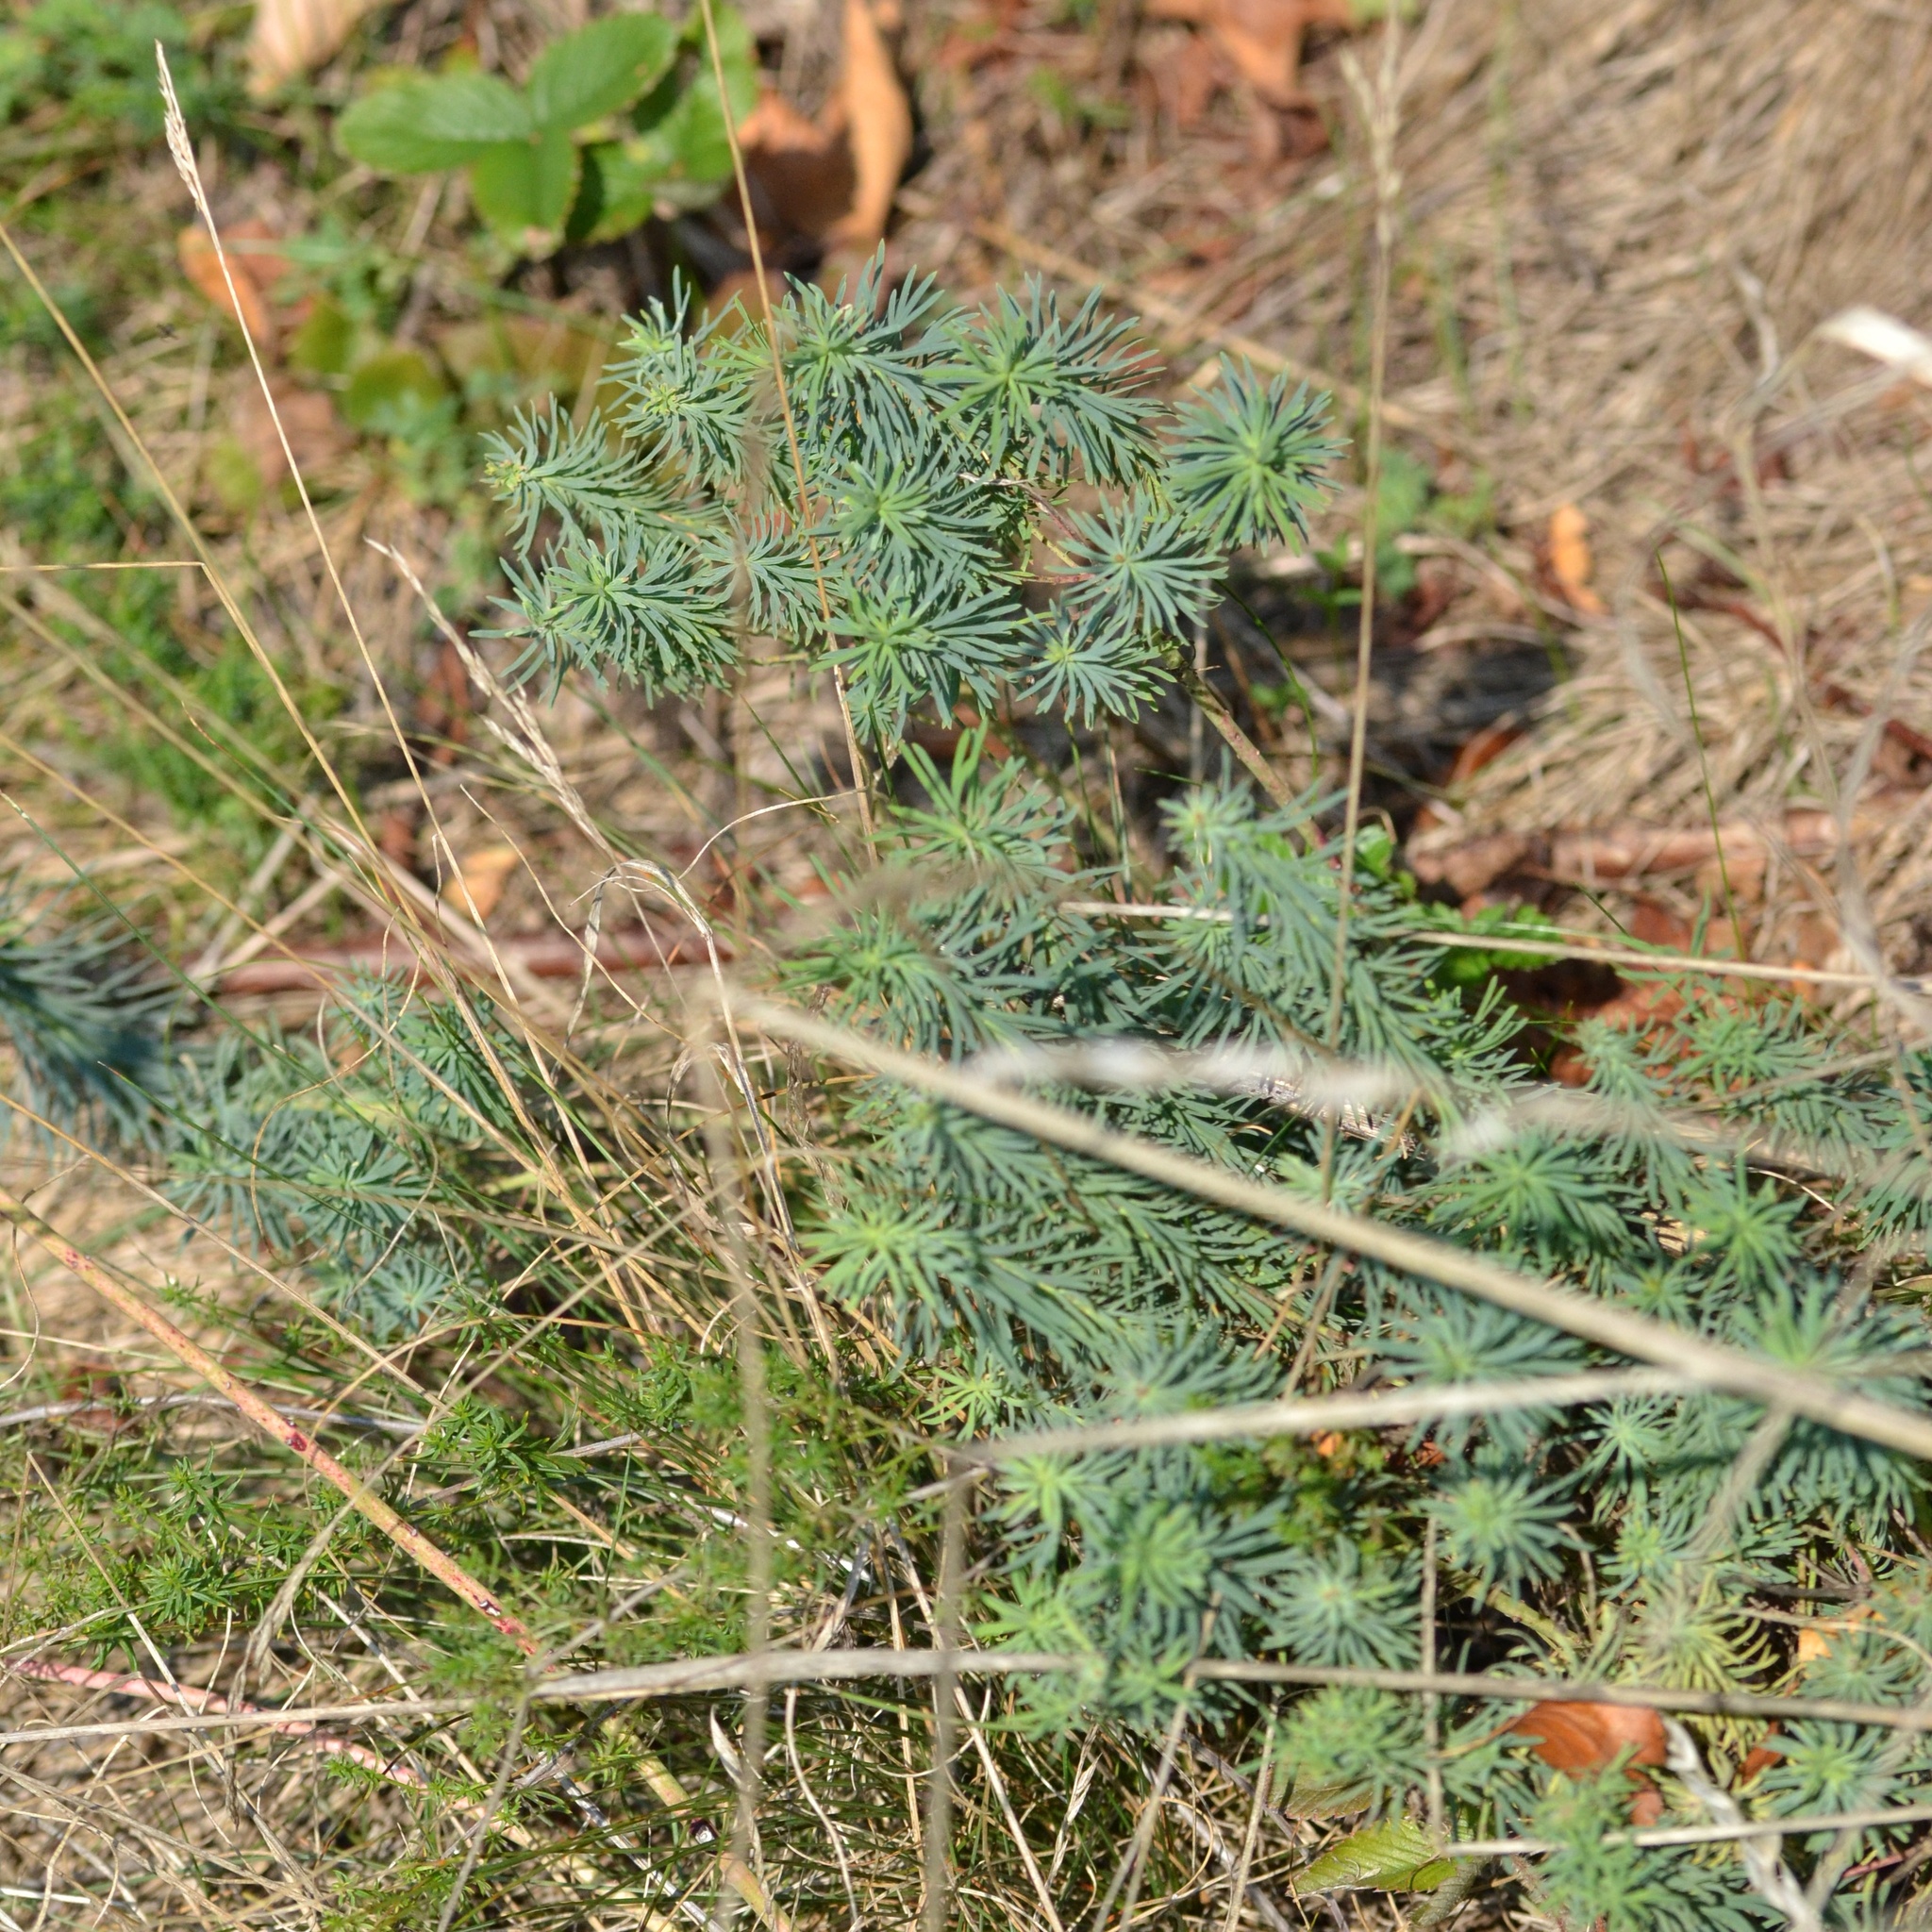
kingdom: Plantae
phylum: Tracheophyta
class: Magnoliopsida
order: Malpighiales
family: Euphorbiaceae
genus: Euphorbia
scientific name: Euphorbia cyparissias
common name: Cypress spurge
